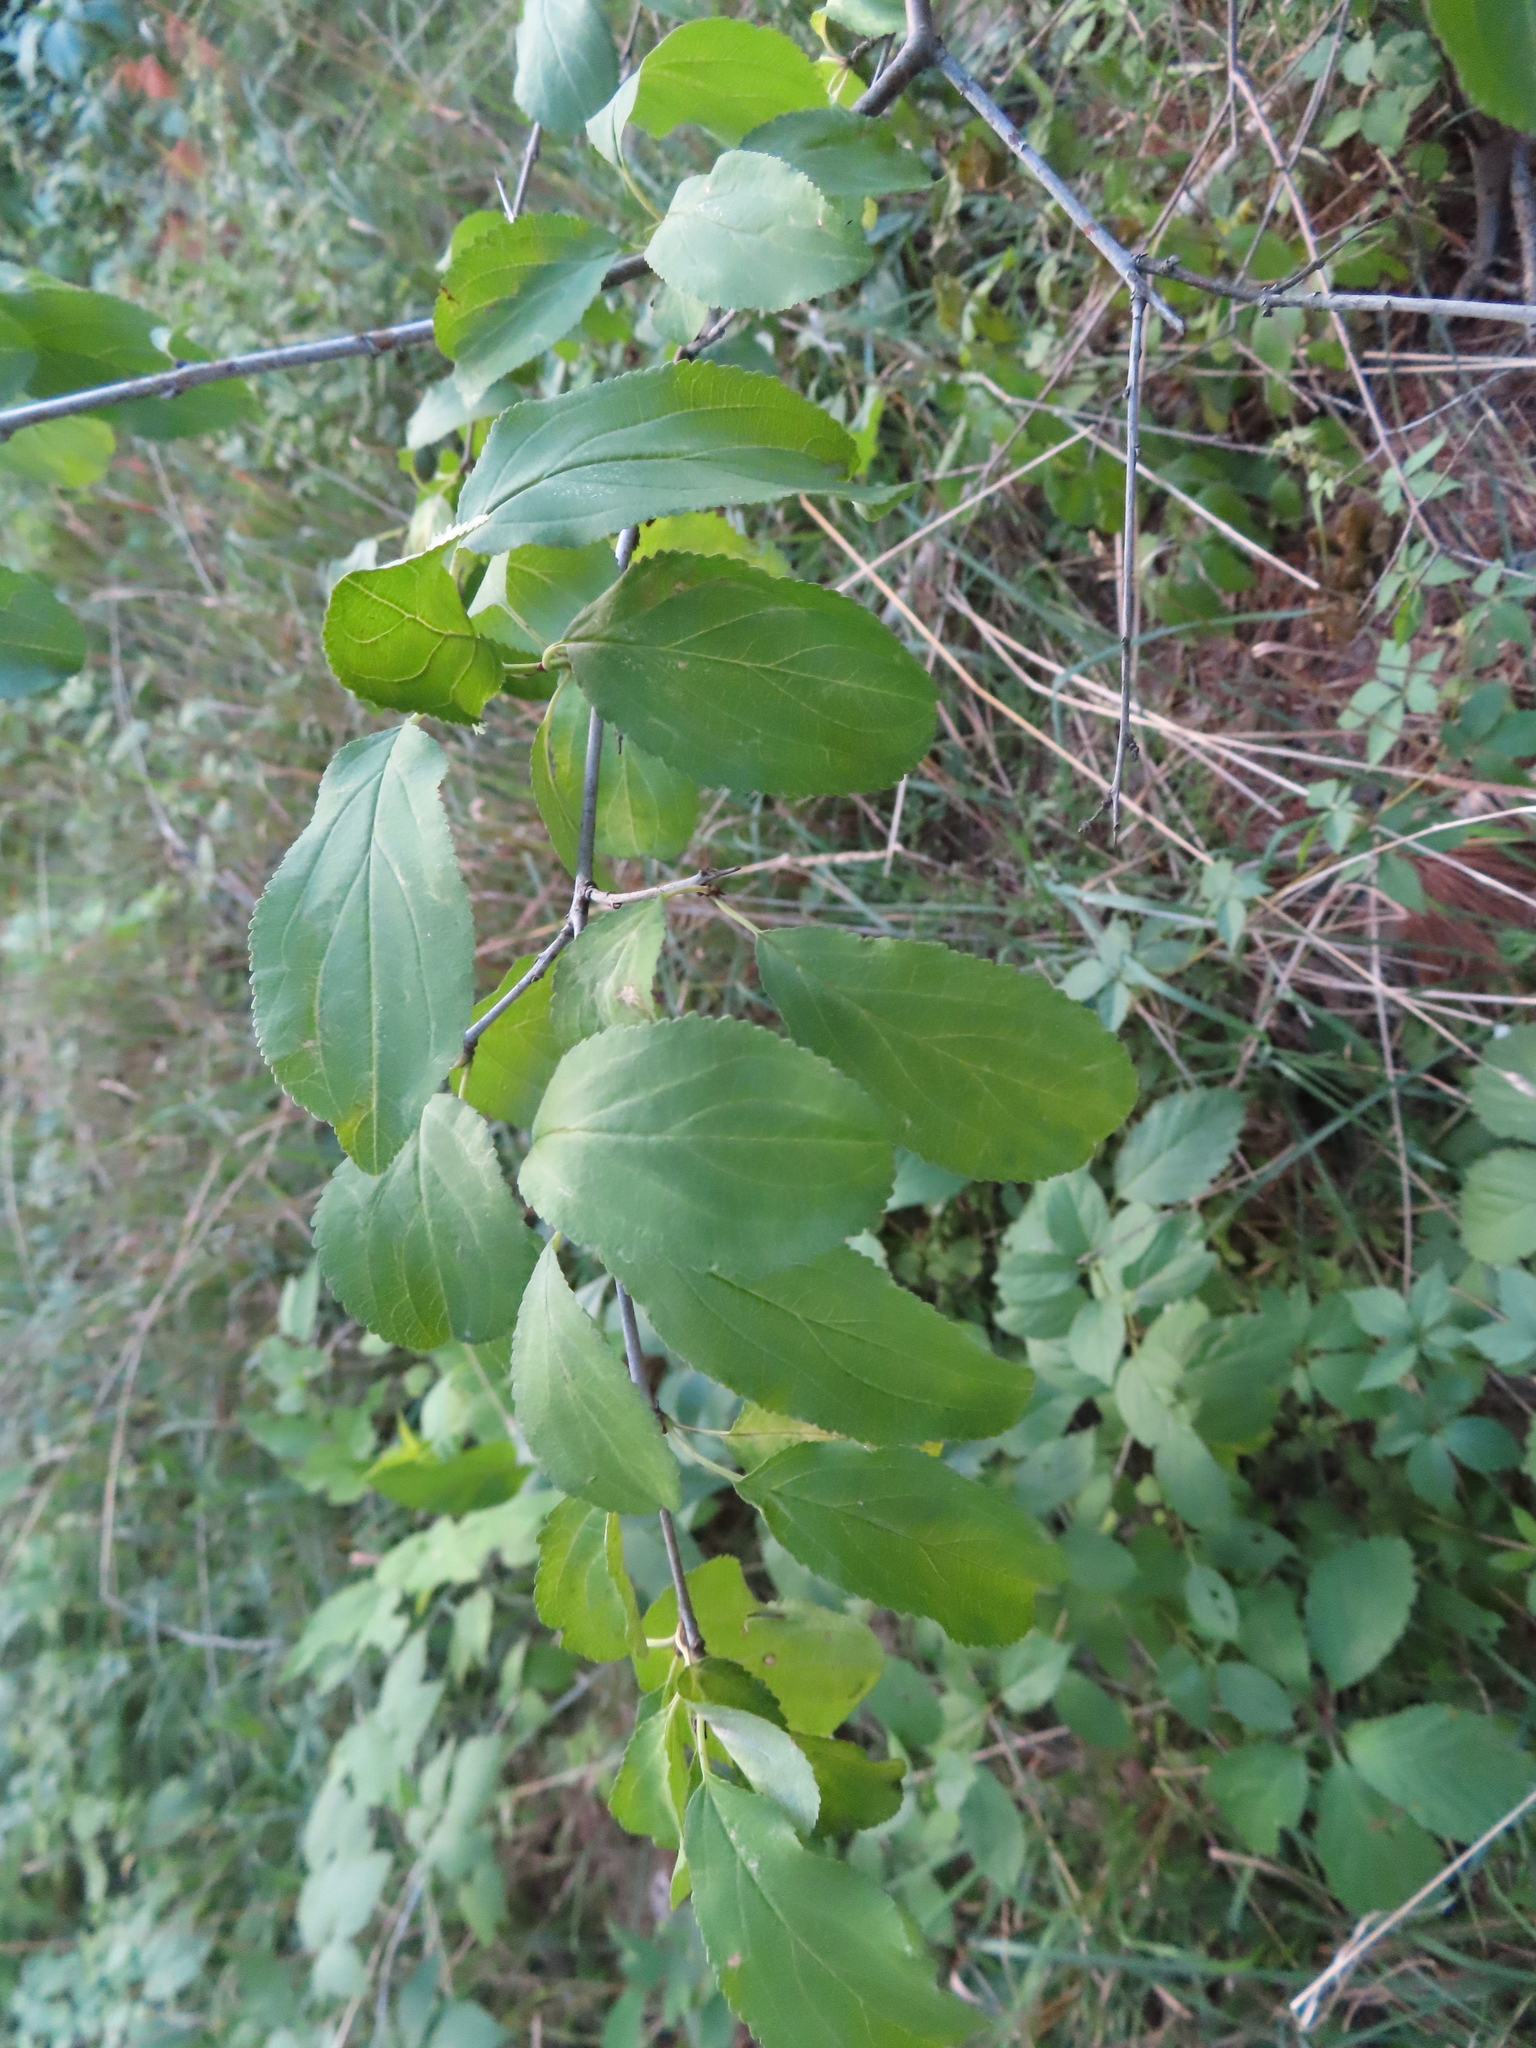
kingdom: Plantae
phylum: Tracheophyta
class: Magnoliopsida
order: Rosales
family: Rhamnaceae
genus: Rhamnus
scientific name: Rhamnus cathartica
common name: Common buckthorn
